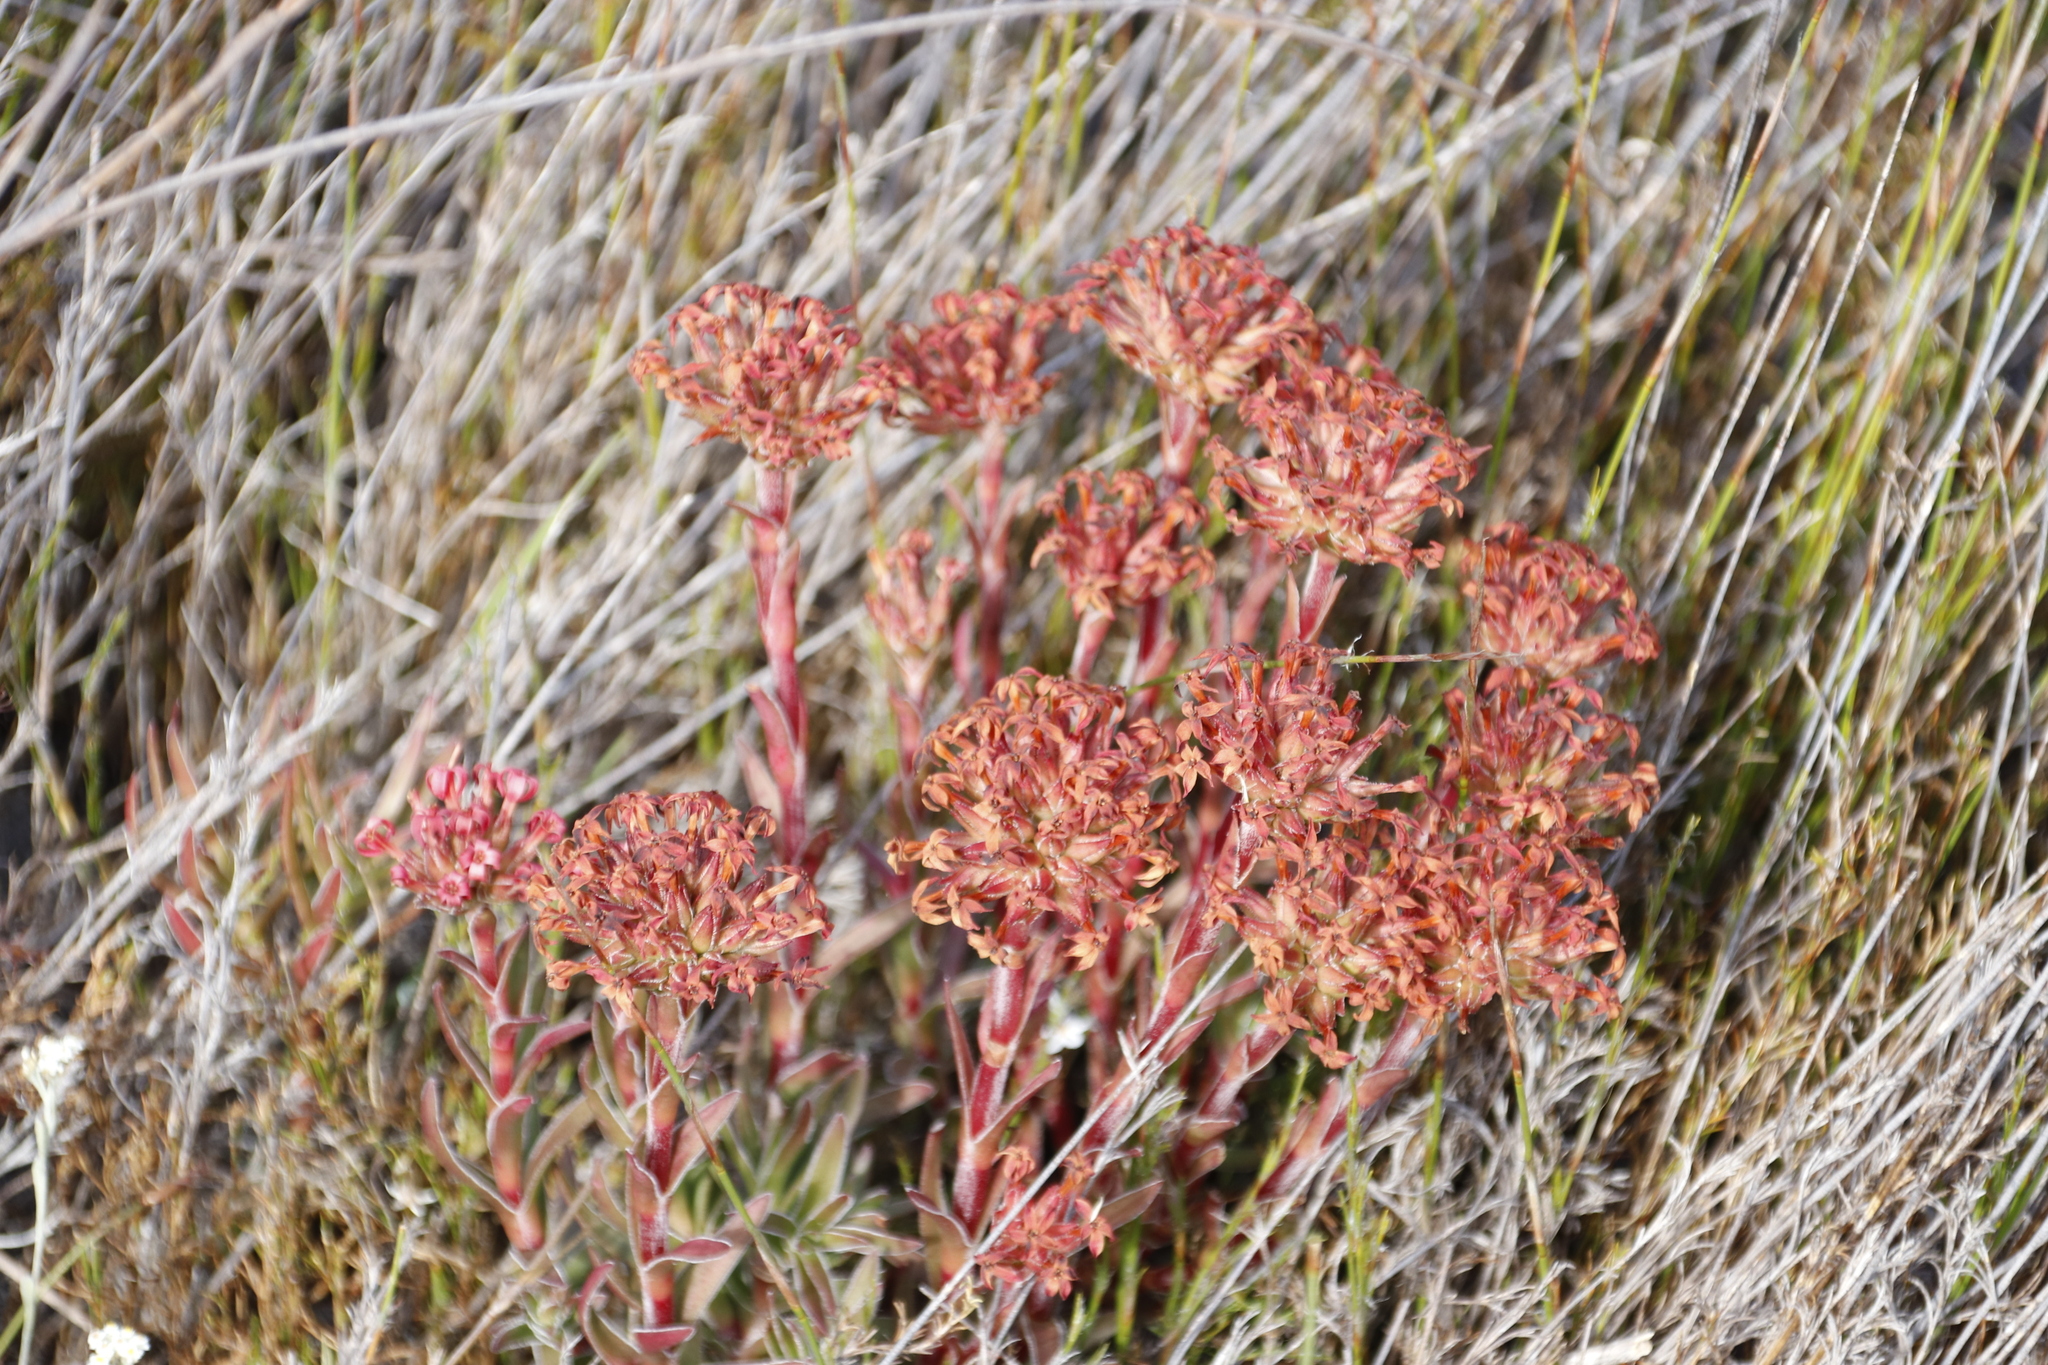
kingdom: Plantae
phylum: Tracheophyta
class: Magnoliopsida
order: Saxifragales
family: Crassulaceae
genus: Crassula
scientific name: Crassula fascicularis
